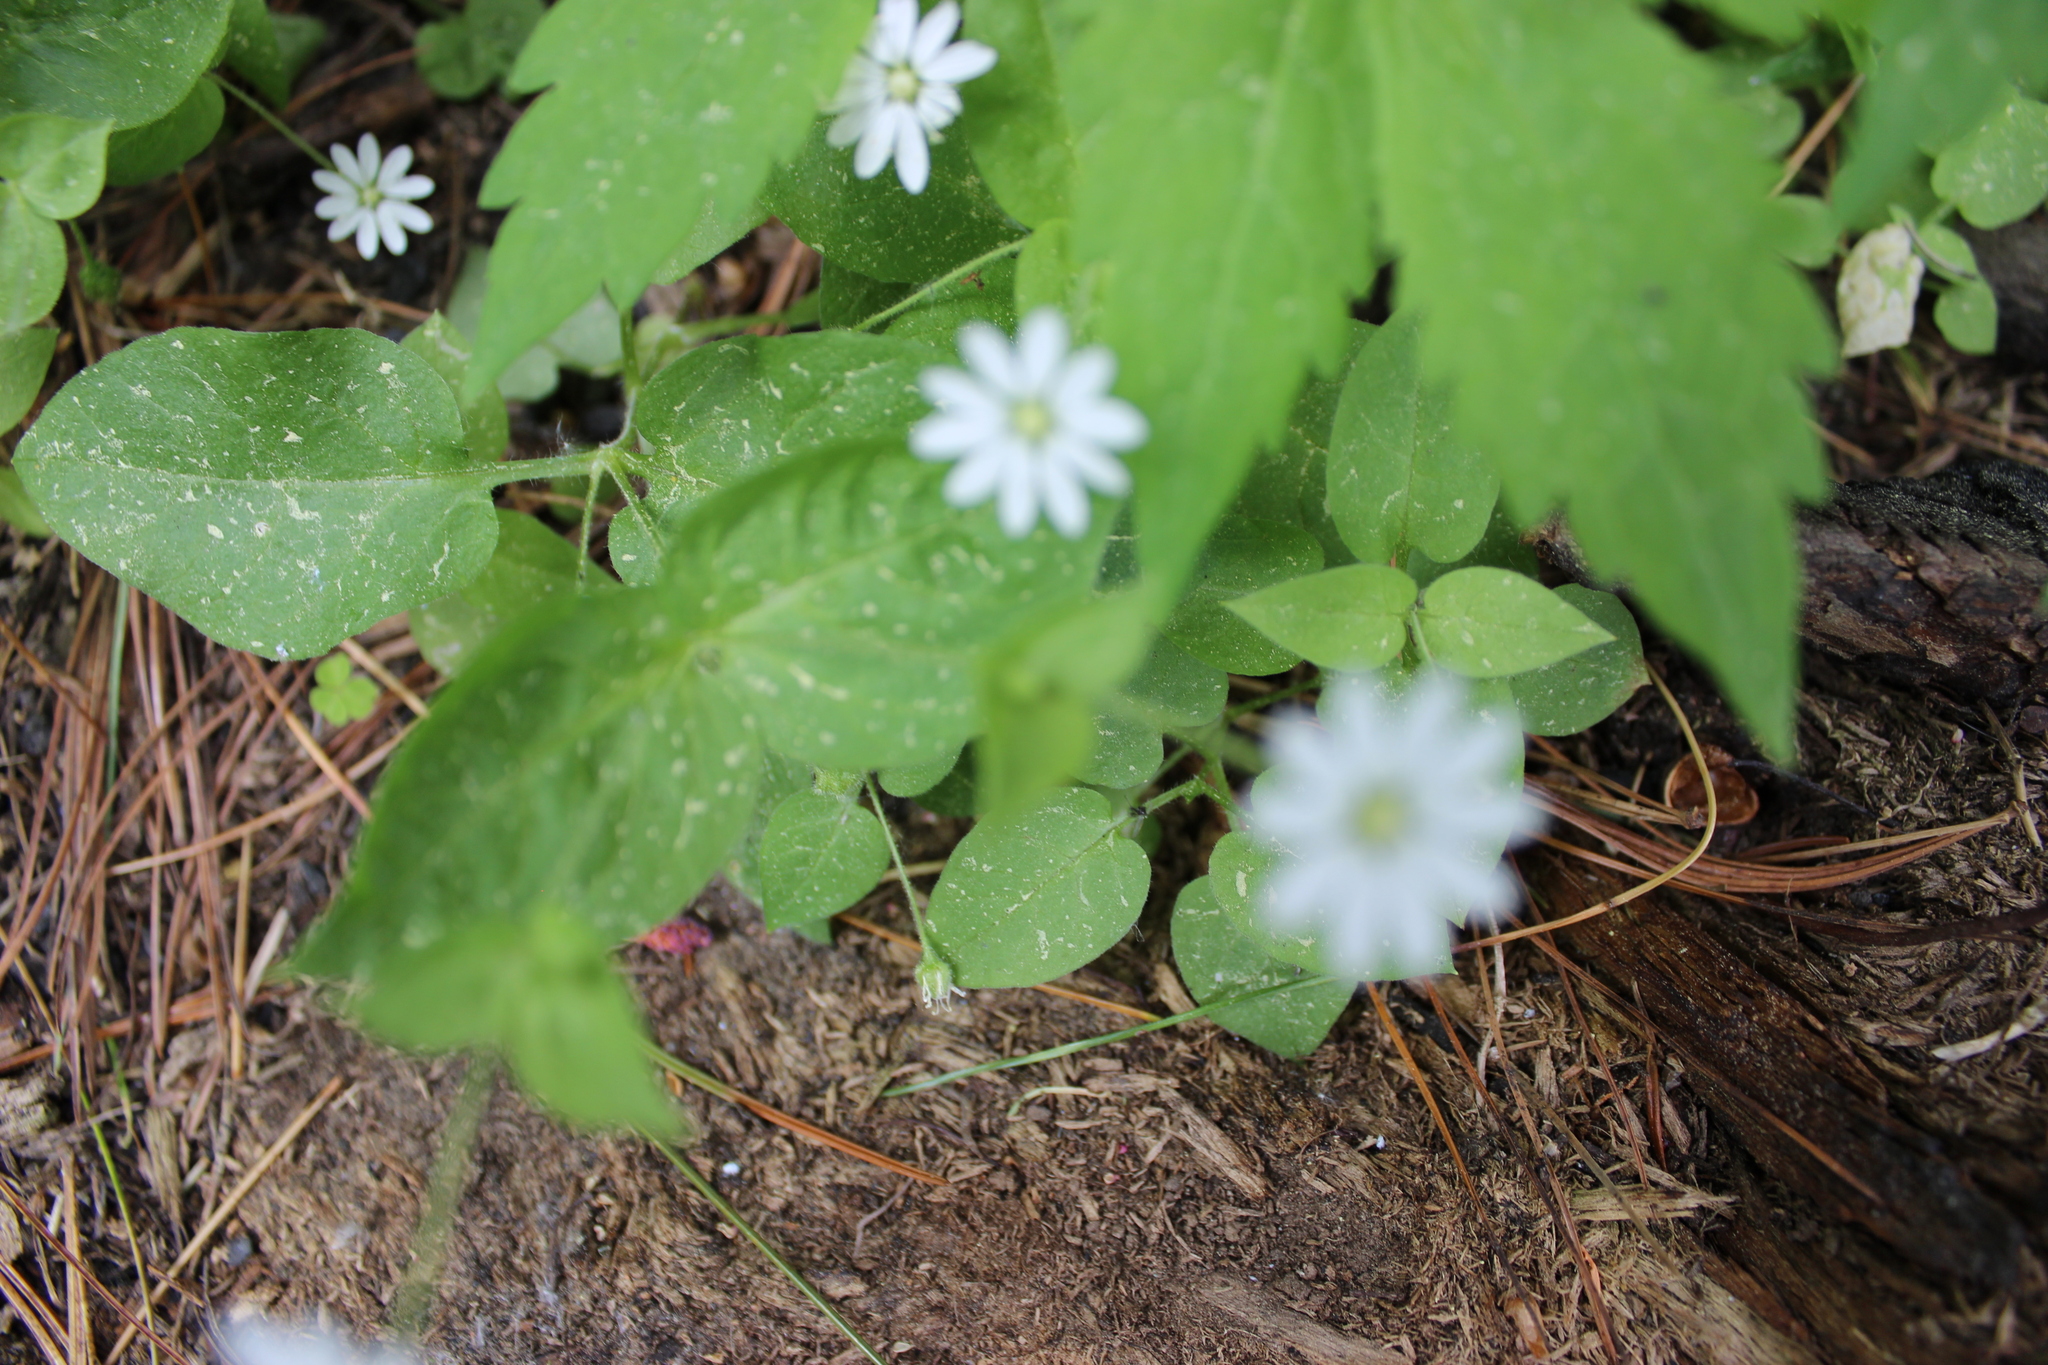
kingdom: Plantae
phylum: Tracheophyta
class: Magnoliopsida
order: Caryophyllales
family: Caryophyllaceae
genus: Stellaria
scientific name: Stellaria bungeana
